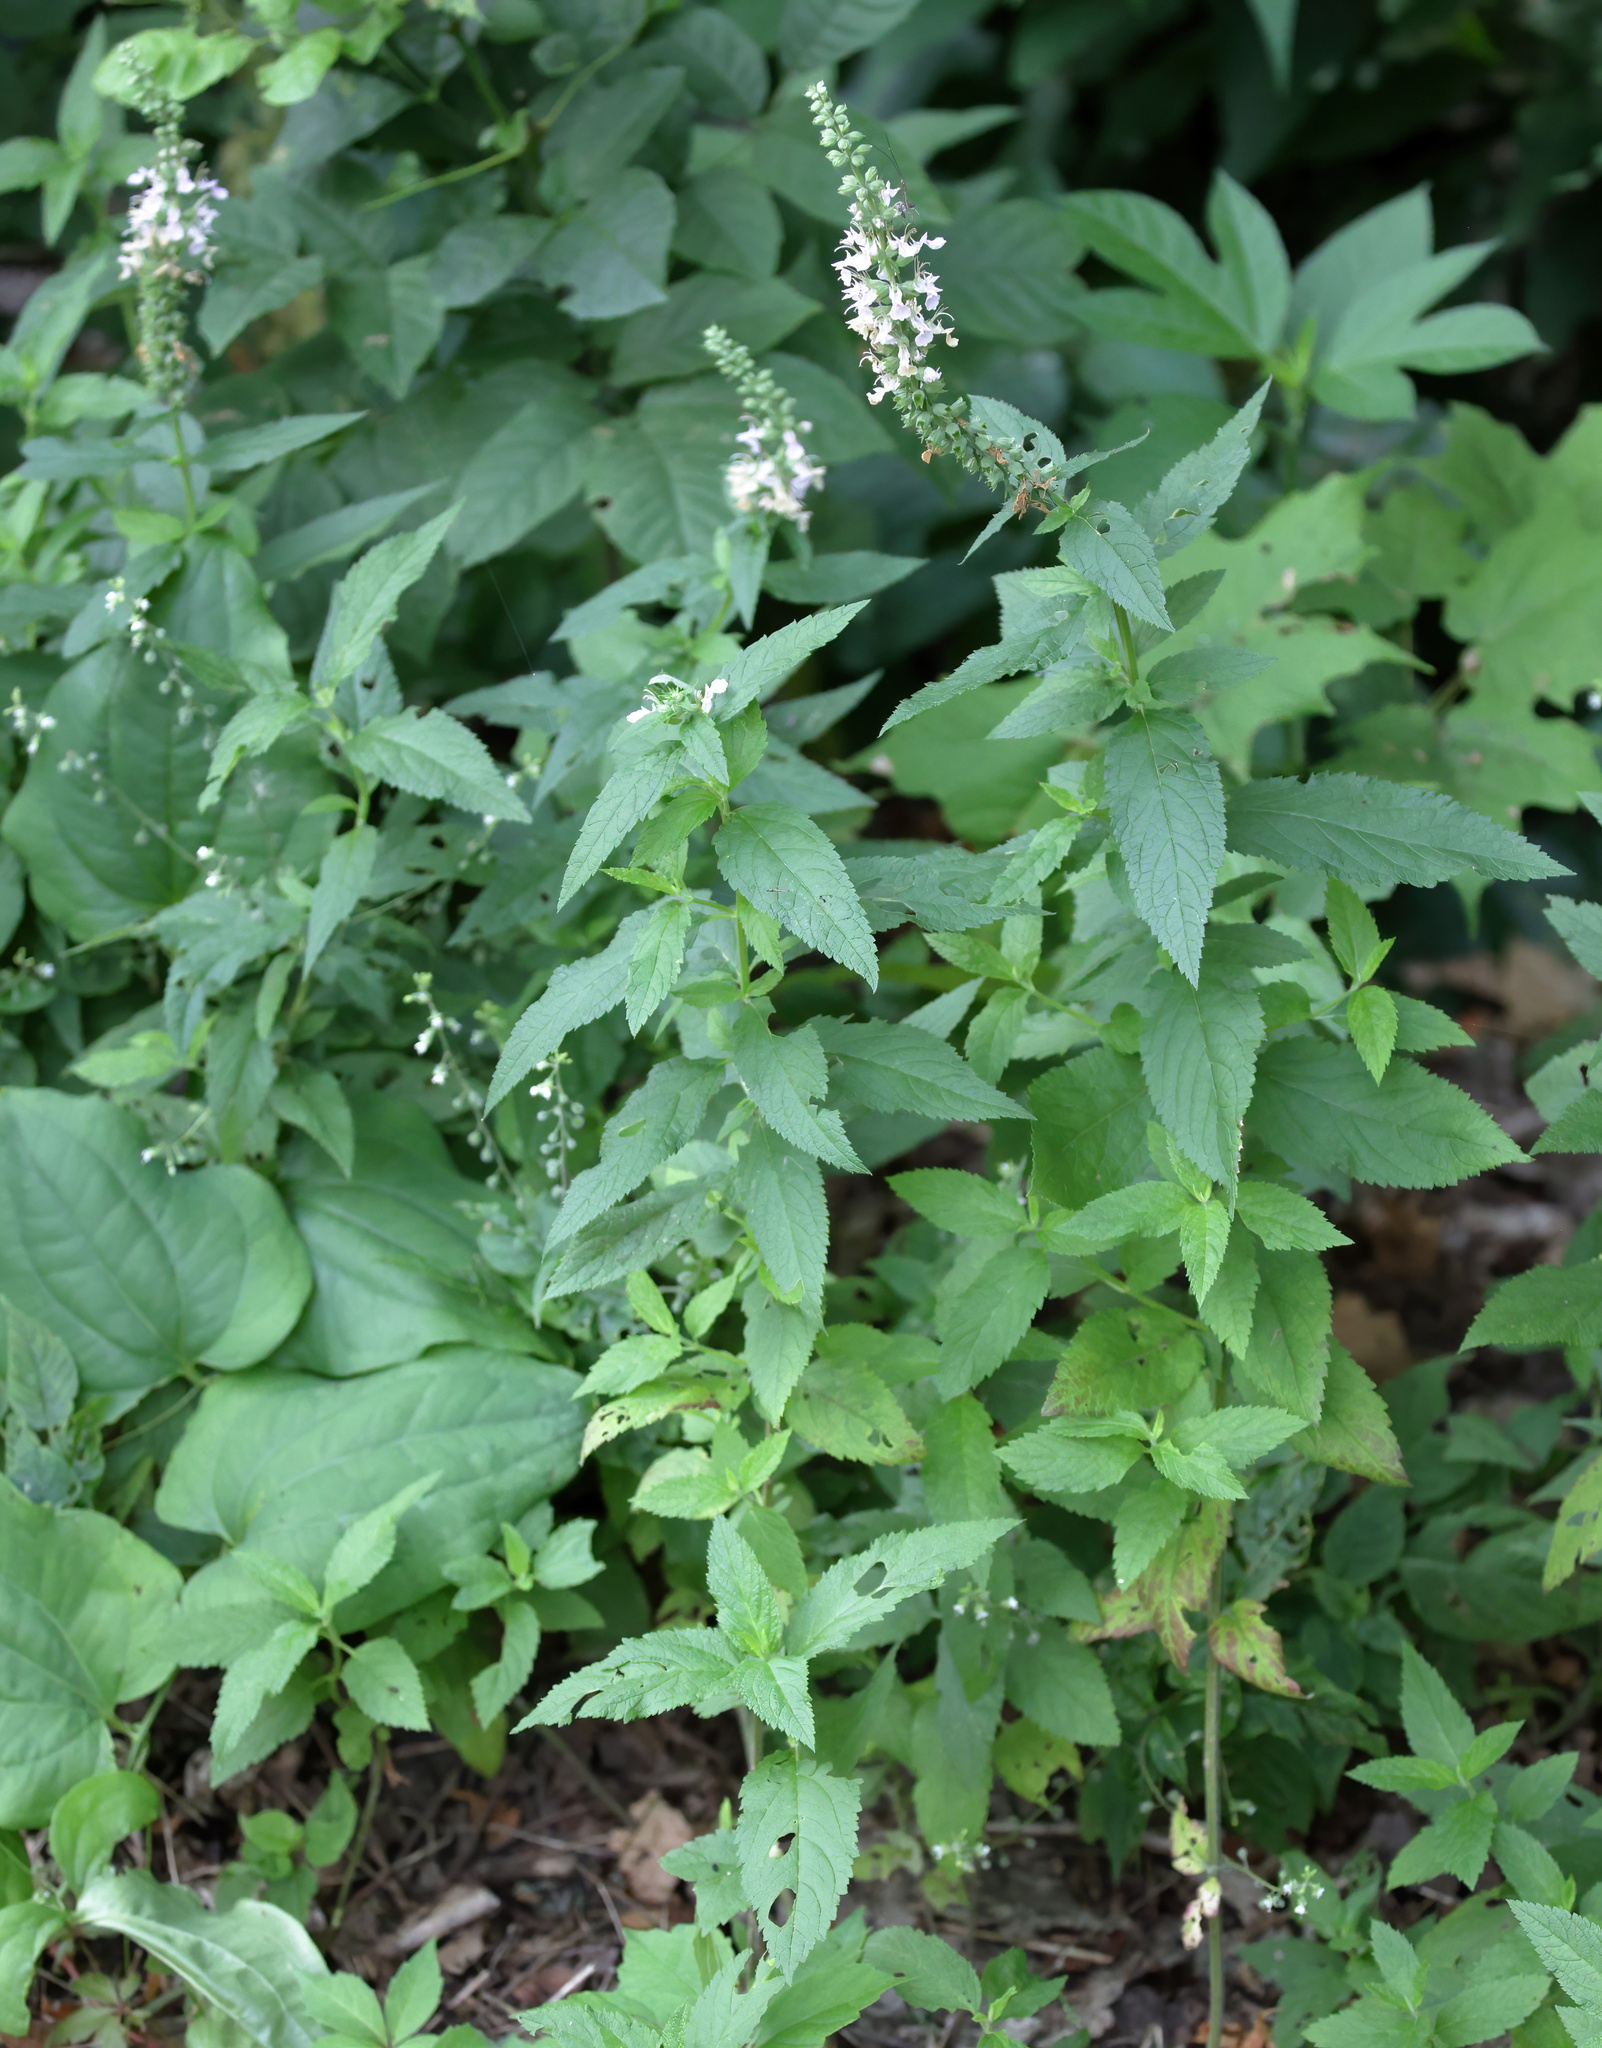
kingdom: Plantae
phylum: Tracheophyta
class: Magnoliopsida
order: Lamiales
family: Lamiaceae
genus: Teucrium
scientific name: Teucrium canadense
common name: American germander
